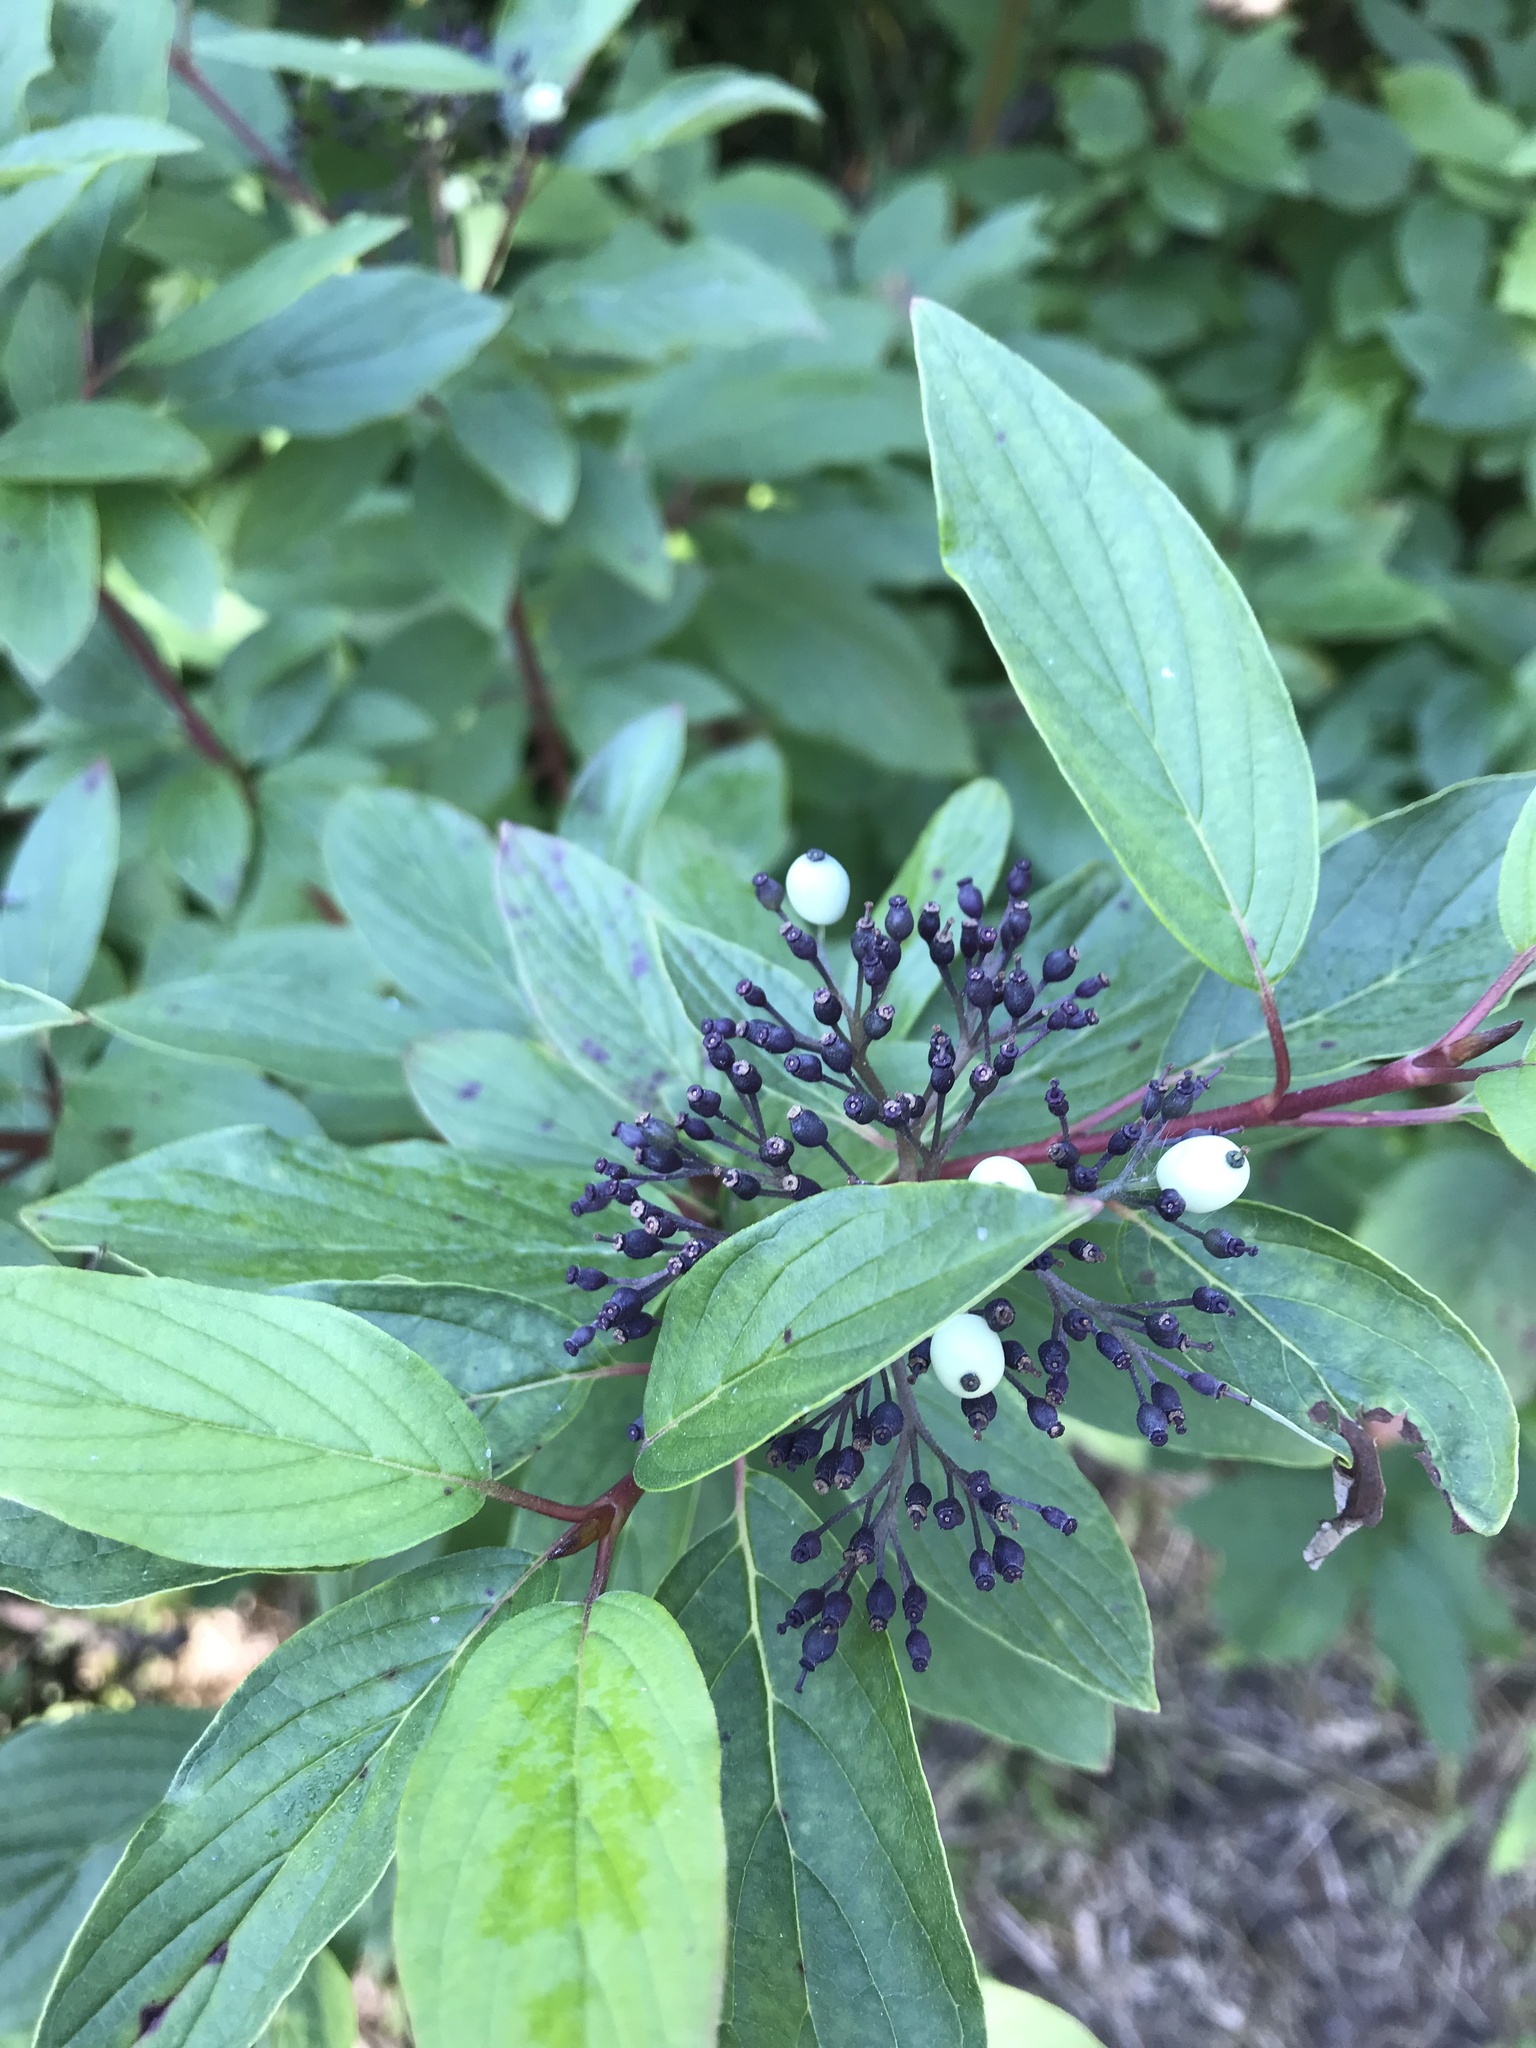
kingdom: Plantae
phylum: Tracheophyta
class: Magnoliopsida
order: Cornales
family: Cornaceae
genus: Cornus
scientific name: Cornus sericea
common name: Red-osier dogwood
